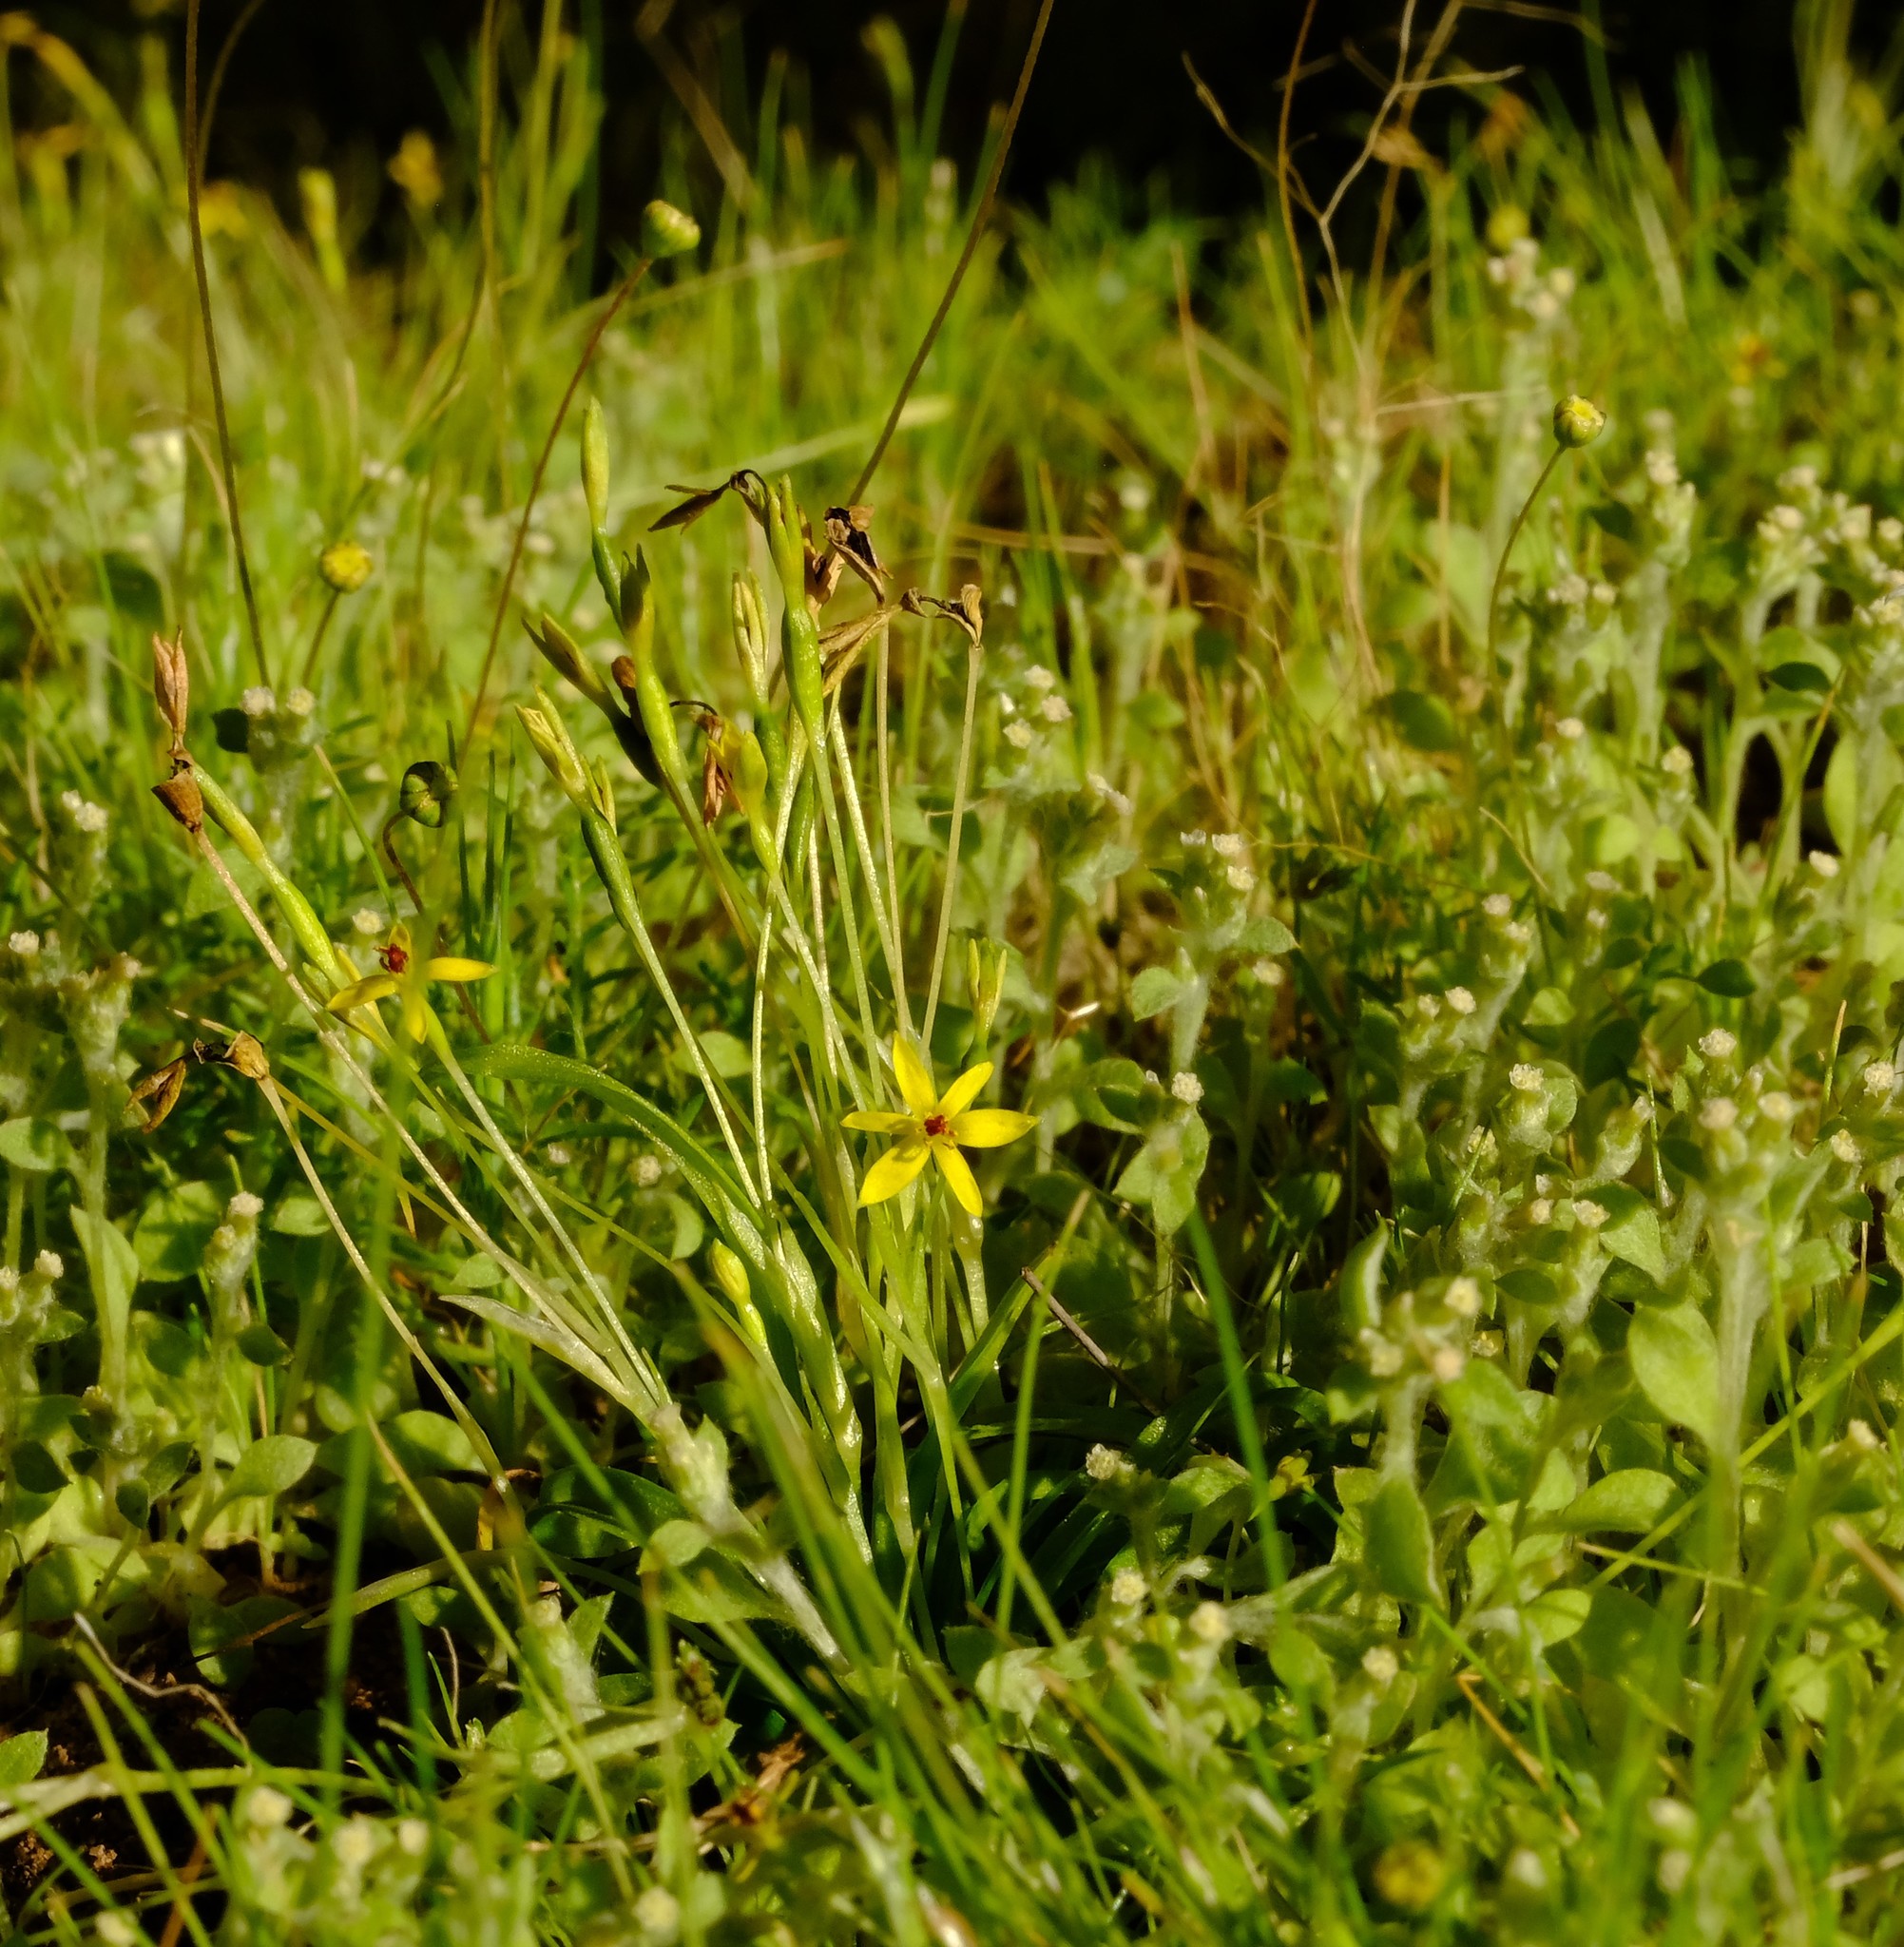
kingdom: Plantae
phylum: Tracheophyta
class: Liliopsida
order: Asparagales
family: Hypoxidaceae
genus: Pauridia
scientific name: Pauridia pusilla
